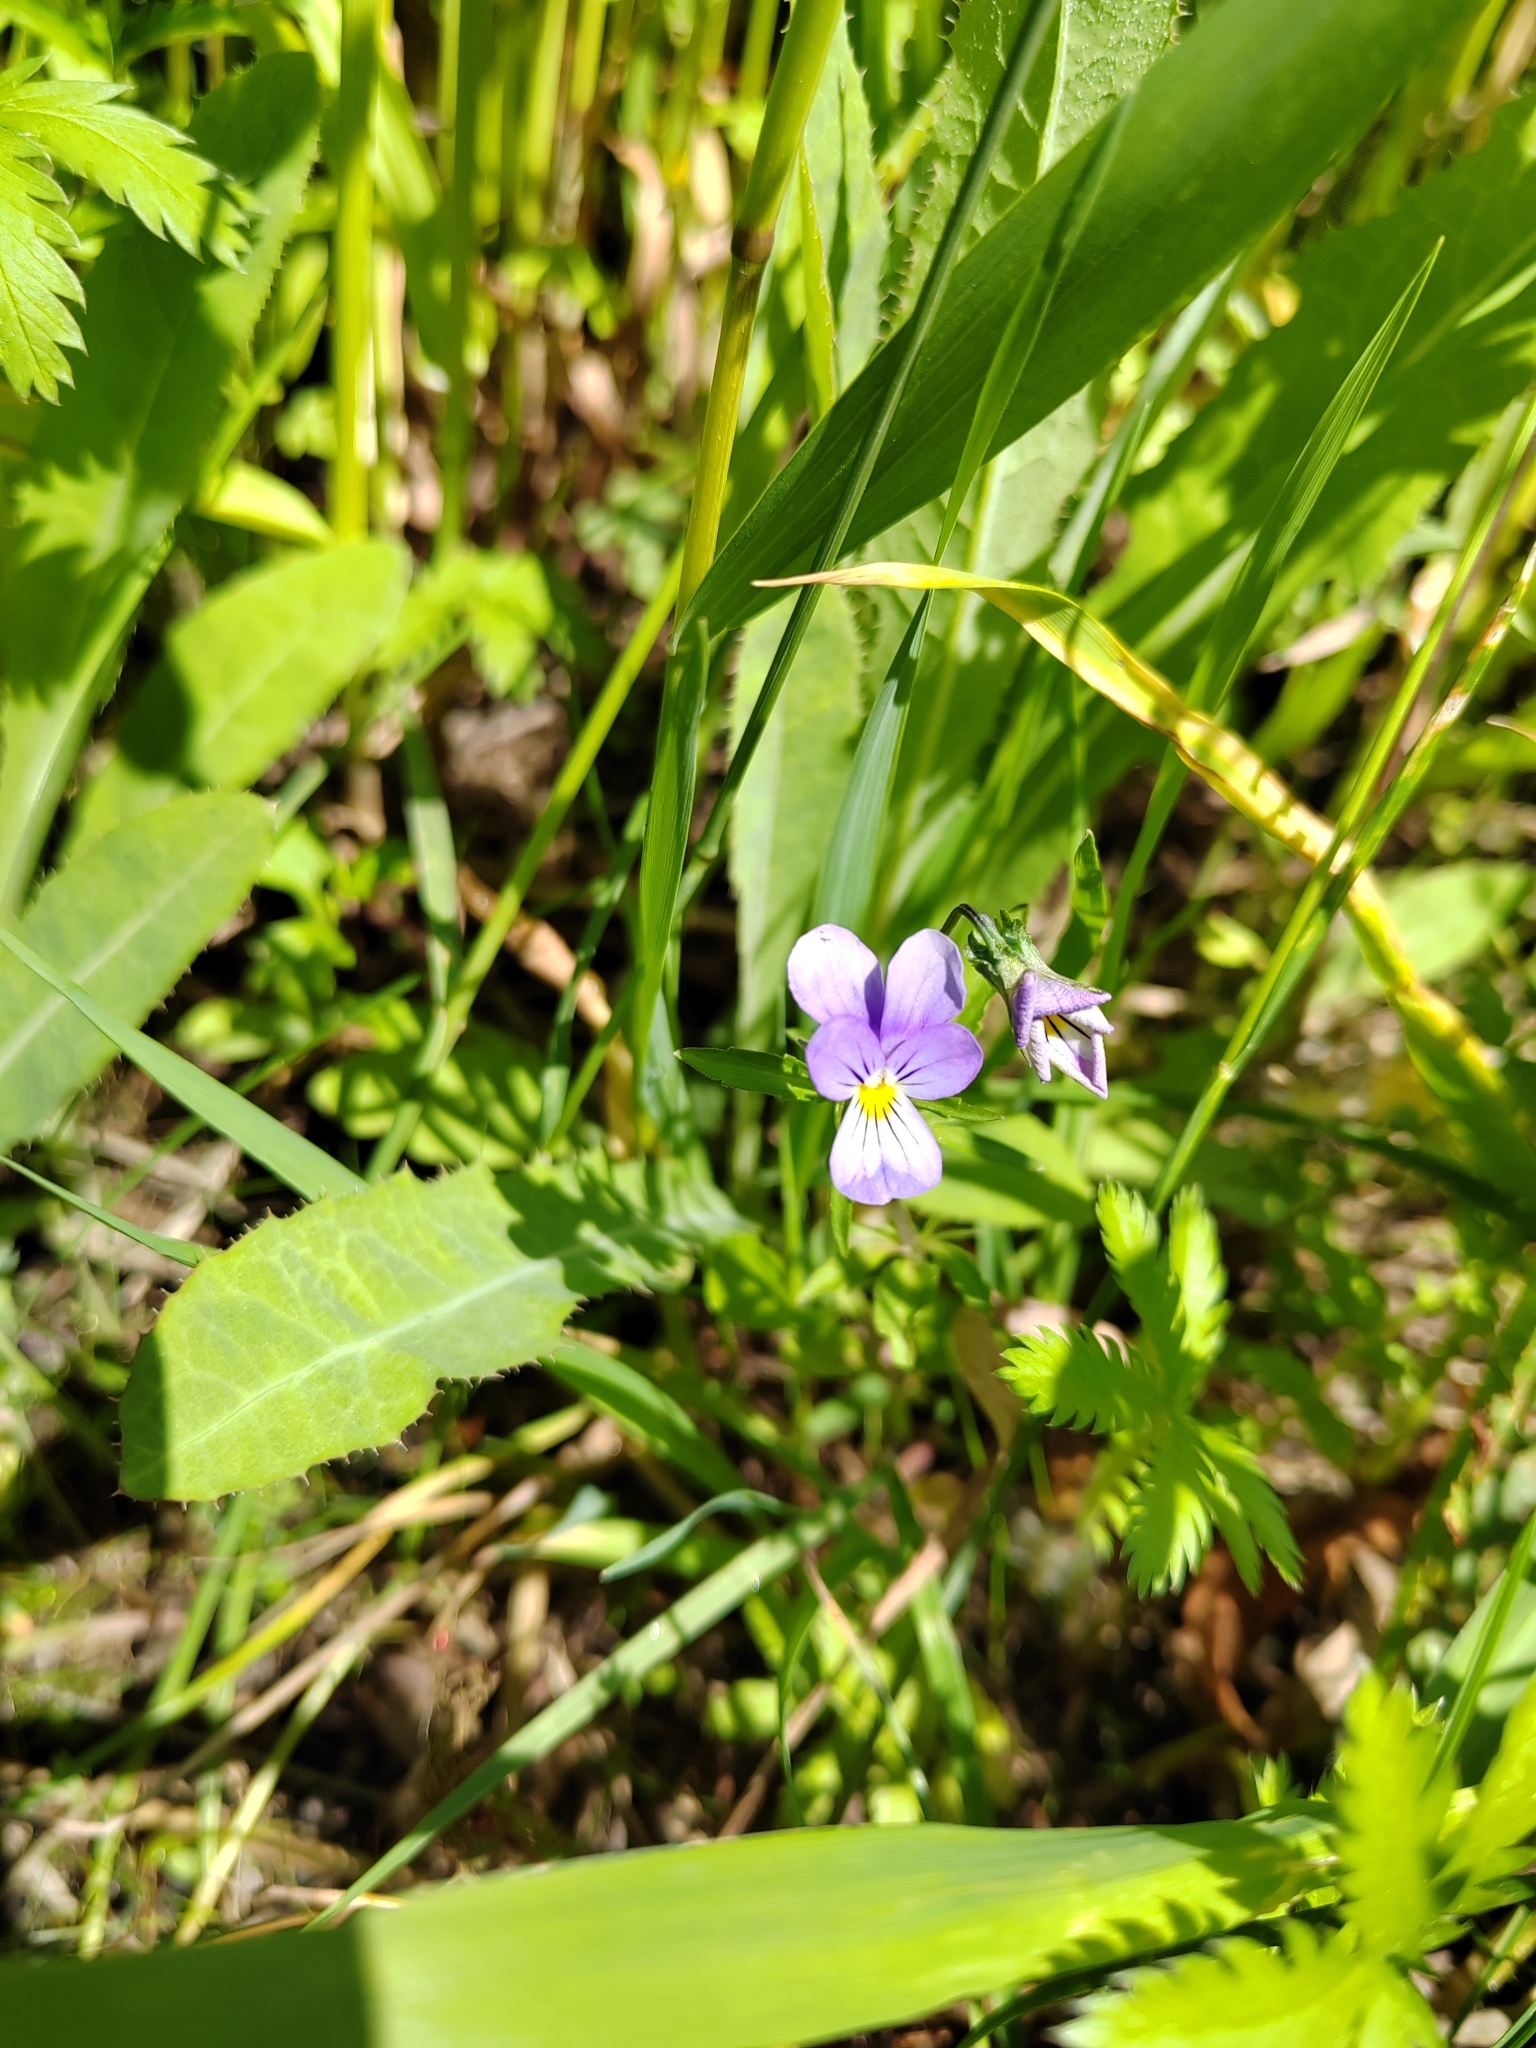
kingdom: Plantae
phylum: Tracheophyta
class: Magnoliopsida
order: Malpighiales
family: Violaceae
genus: Viola
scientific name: Viola tricolor
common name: Pansy
